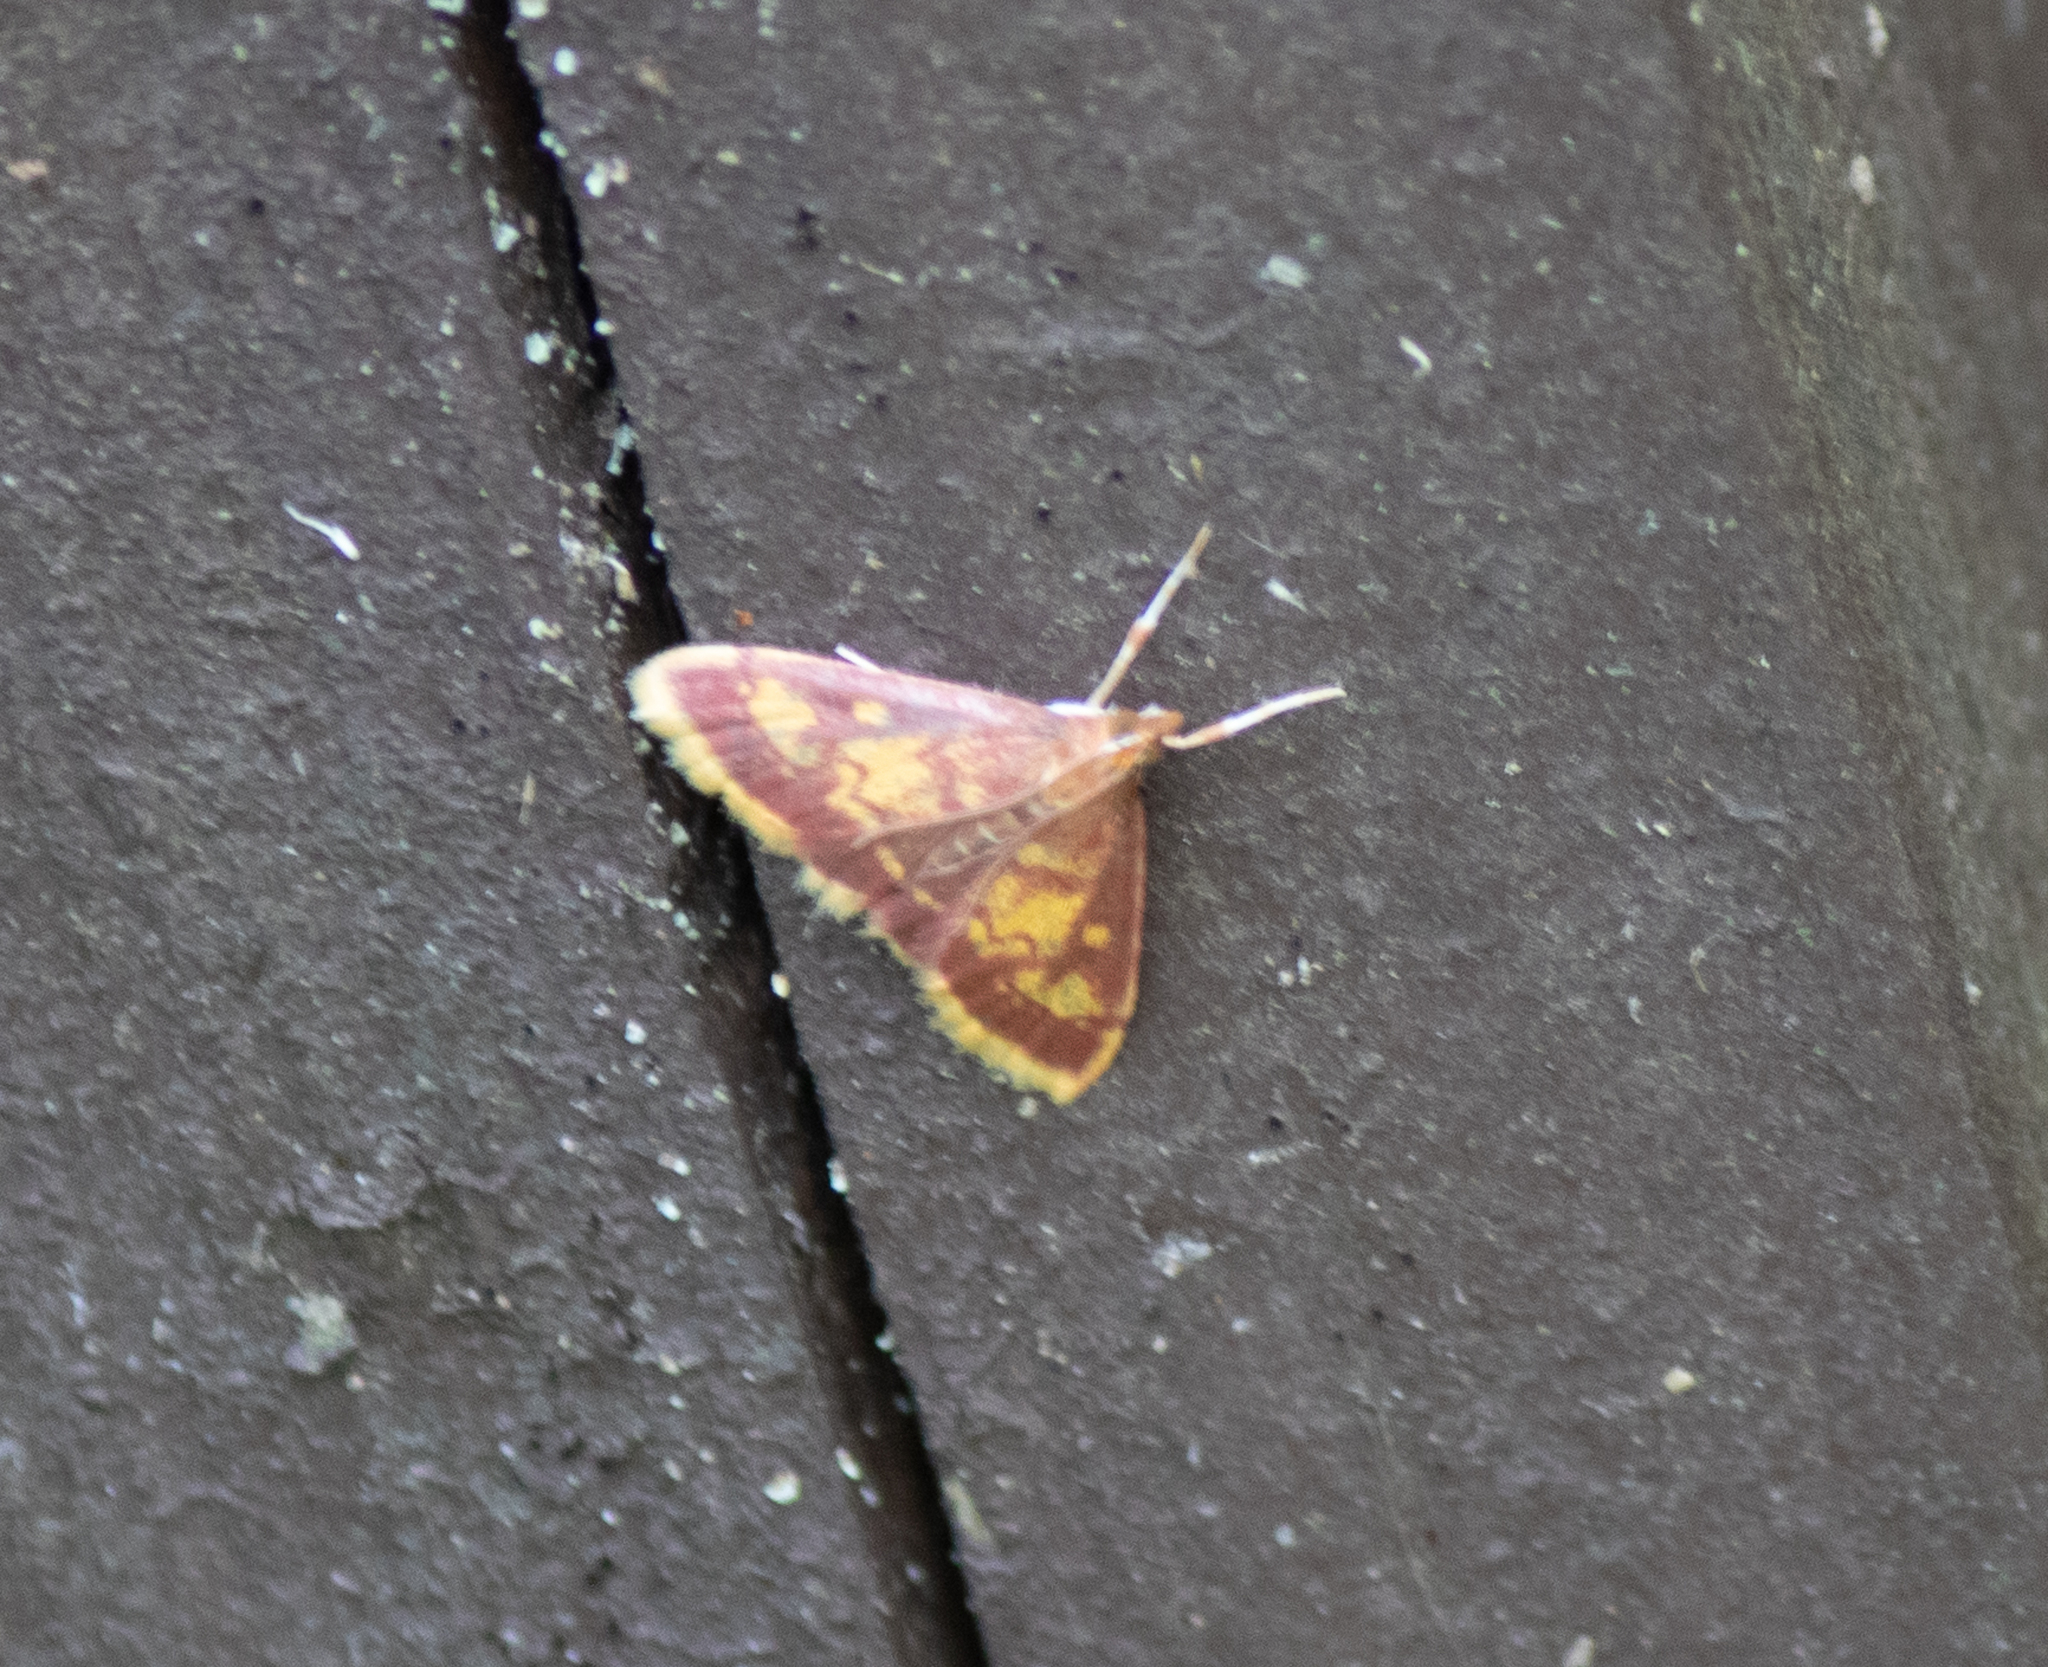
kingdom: Animalia
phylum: Arthropoda
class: Insecta
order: Lepidoptera
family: Crambidae
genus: Pyrausta
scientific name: Pyrausta acrionalis
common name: Mint-loving pyrausta moth
